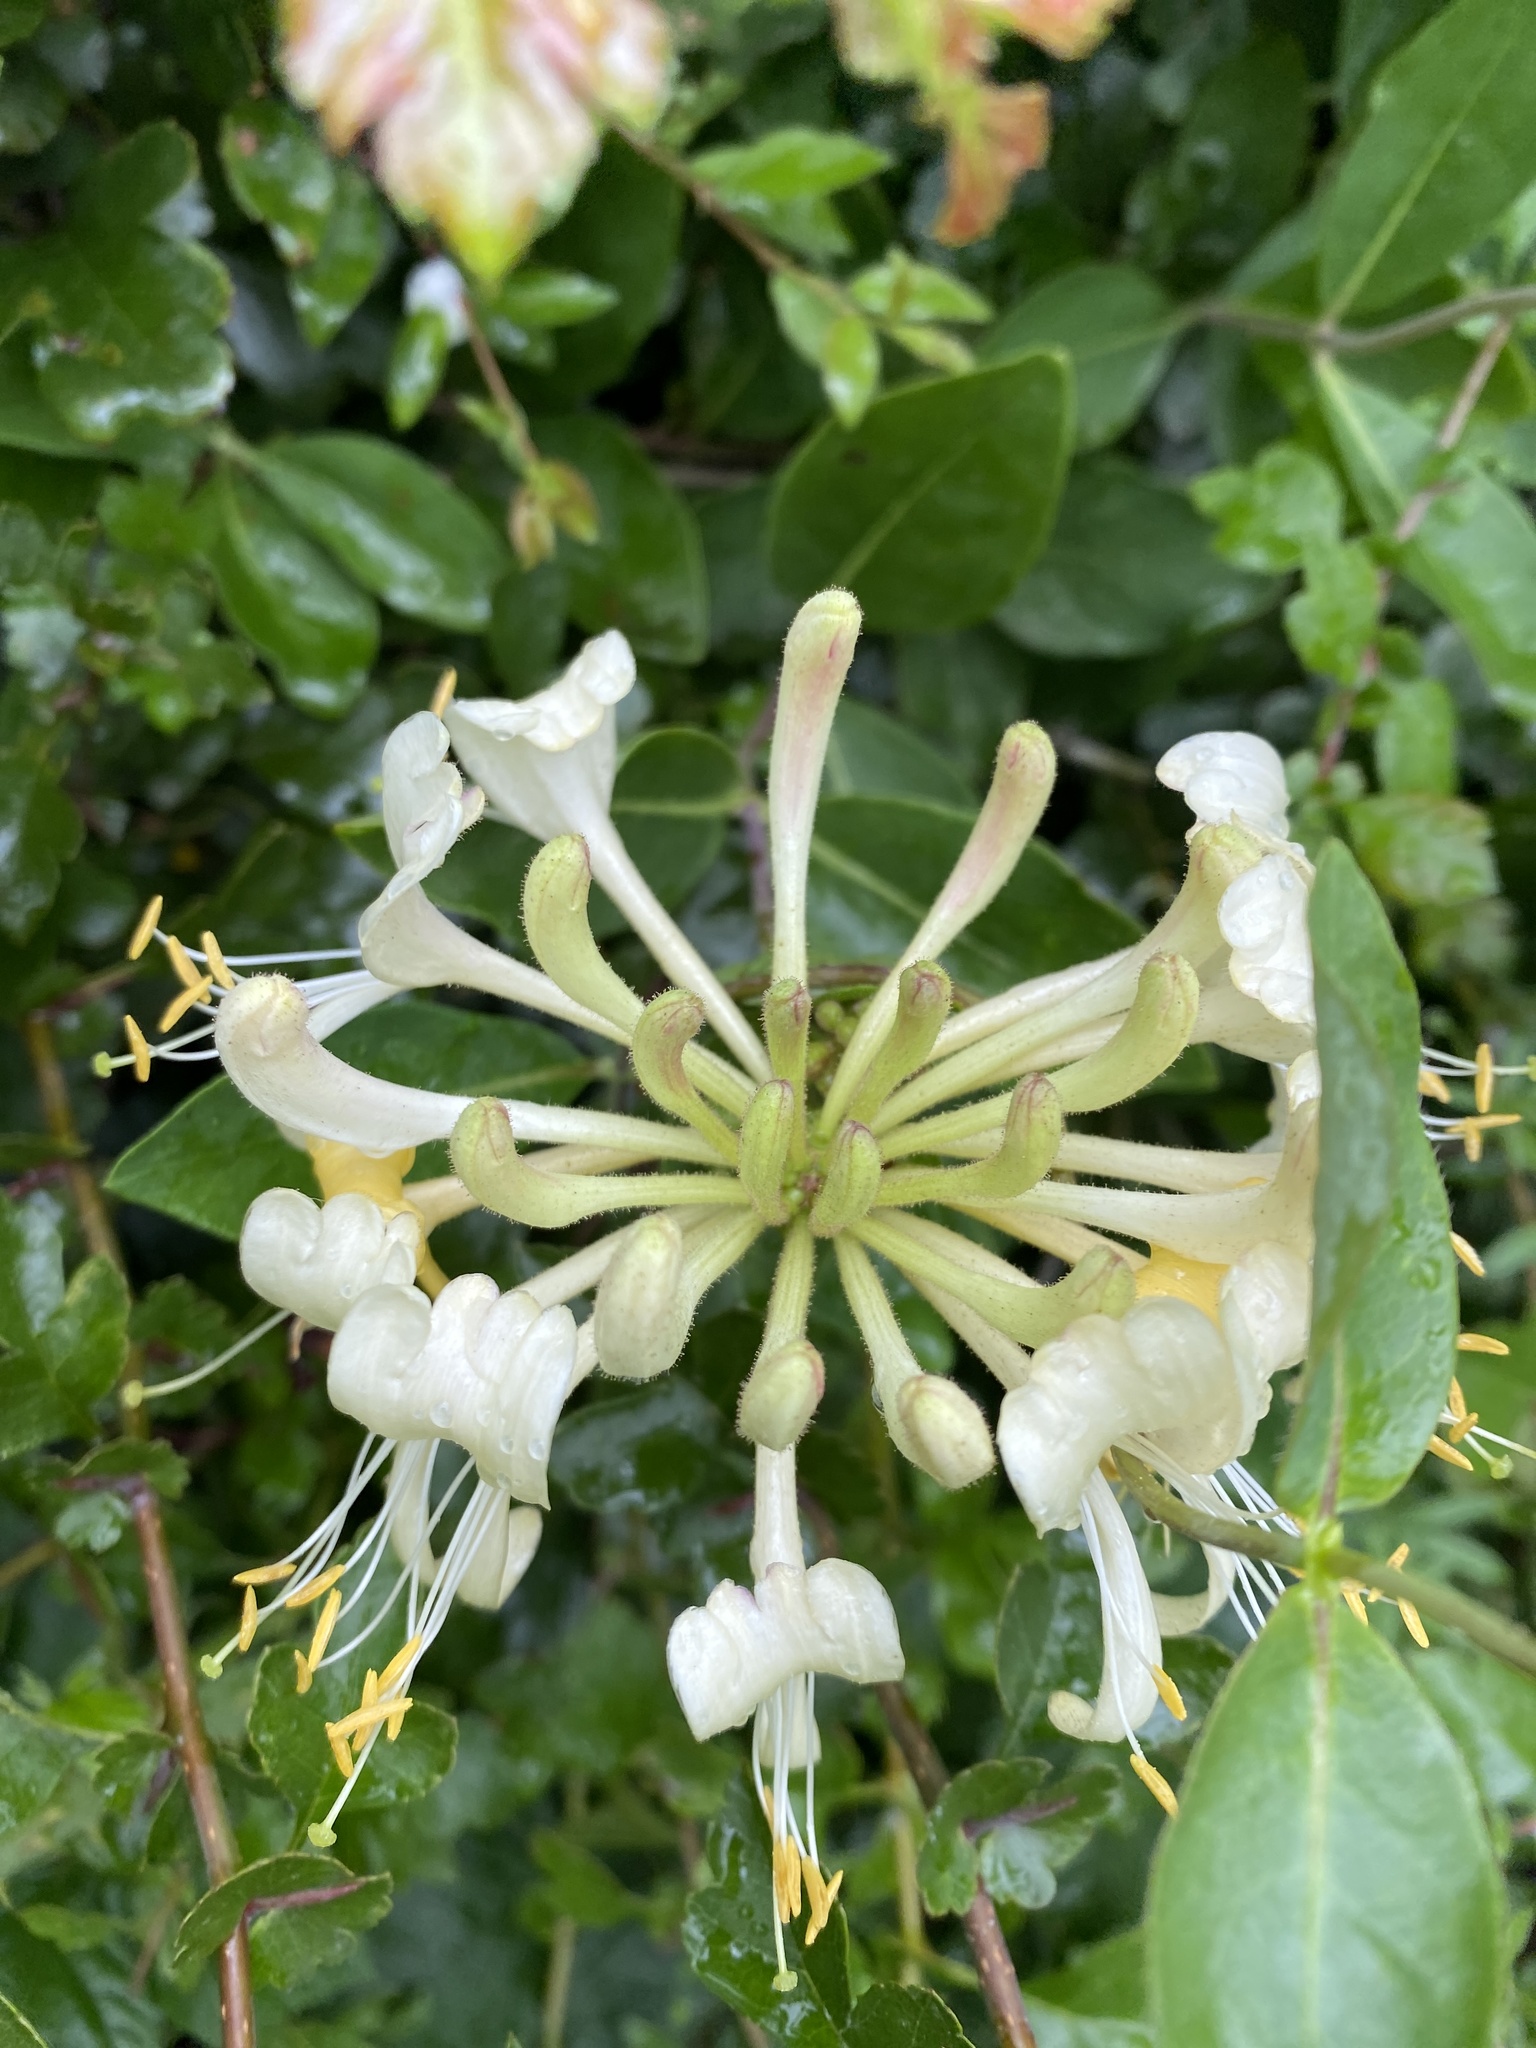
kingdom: Plantae
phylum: Tracheophyta
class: Magnoliopsida
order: Dipsacales
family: Caprifoliaceae
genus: Lonicera
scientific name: Lonicera periclymenum
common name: European honeysuckle
